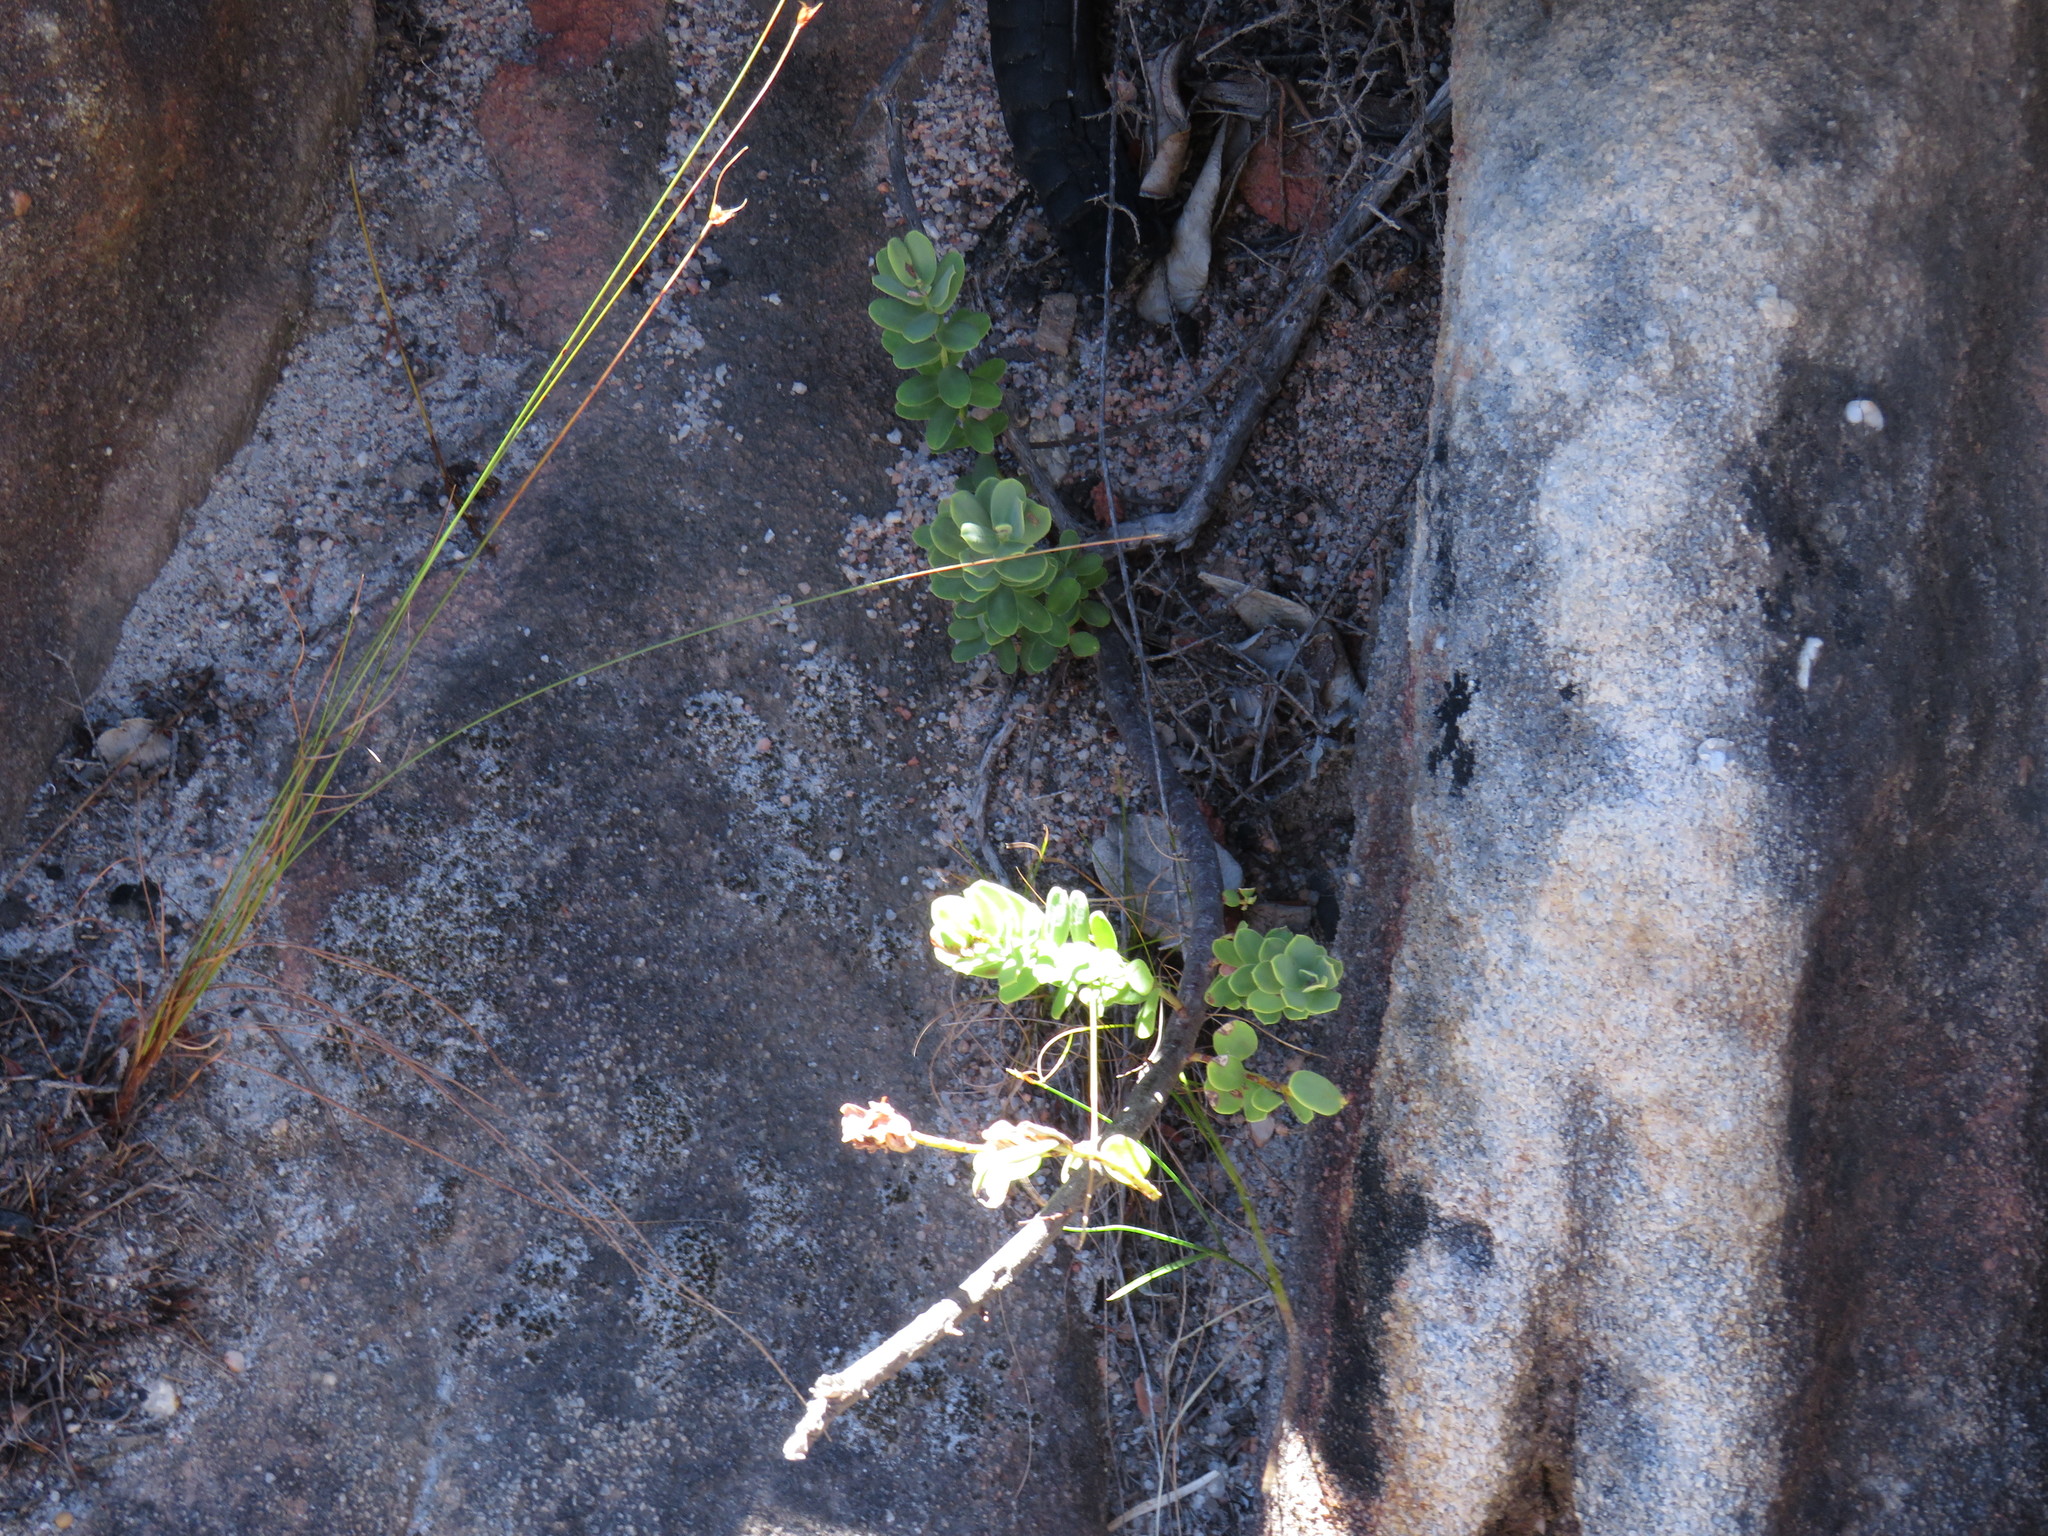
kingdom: Plantae
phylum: Tracheophyta
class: Magnoliopsida
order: Malpighiales
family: Peraceae
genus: Clutia
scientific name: Clutia alaternoides
